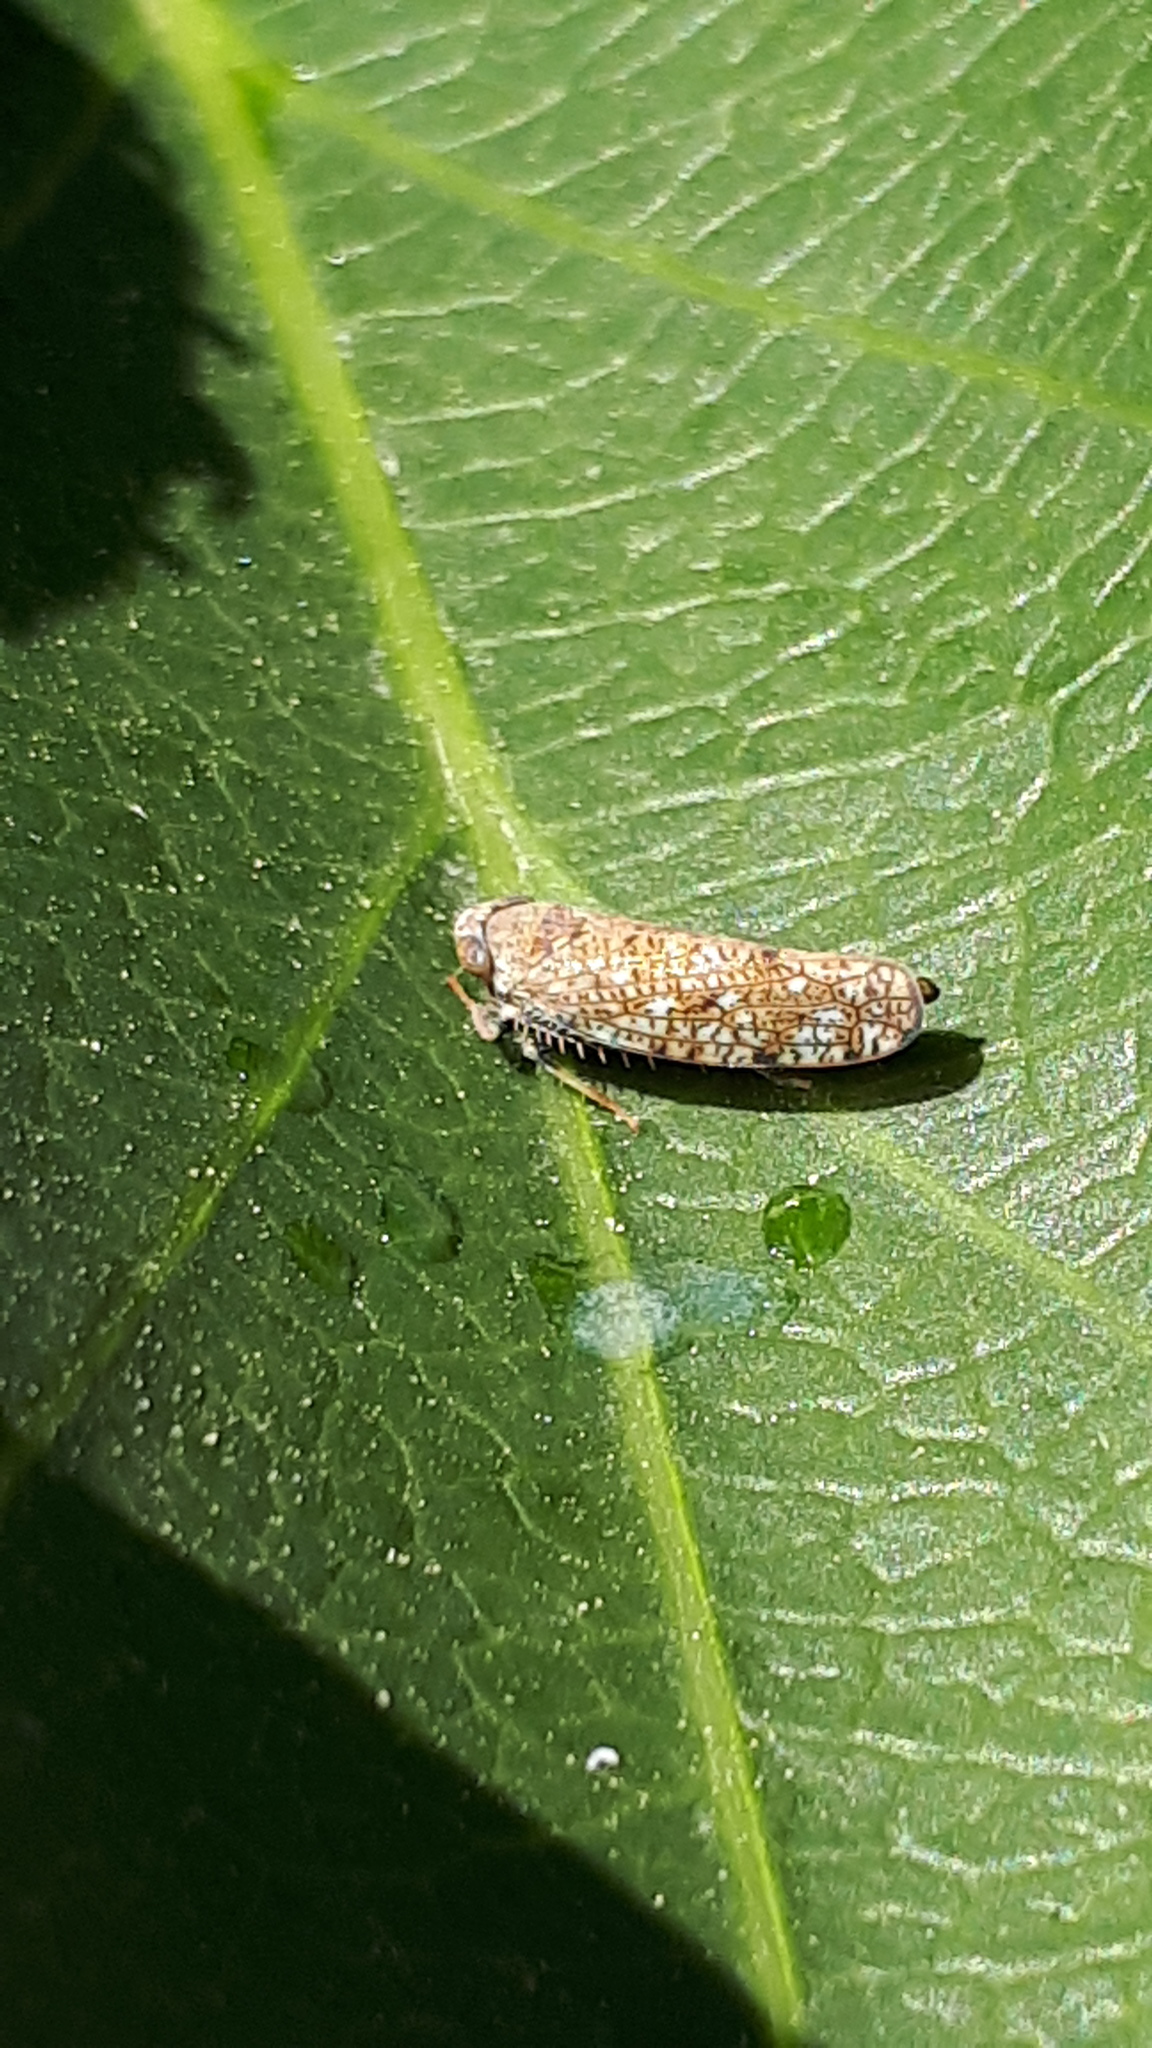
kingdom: Animalia
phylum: Arthropoda
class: Insecta
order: Hemiptera
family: Cicadellidae
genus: Orientus
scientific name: Orientus ishidae
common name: Japanese leafhopper
